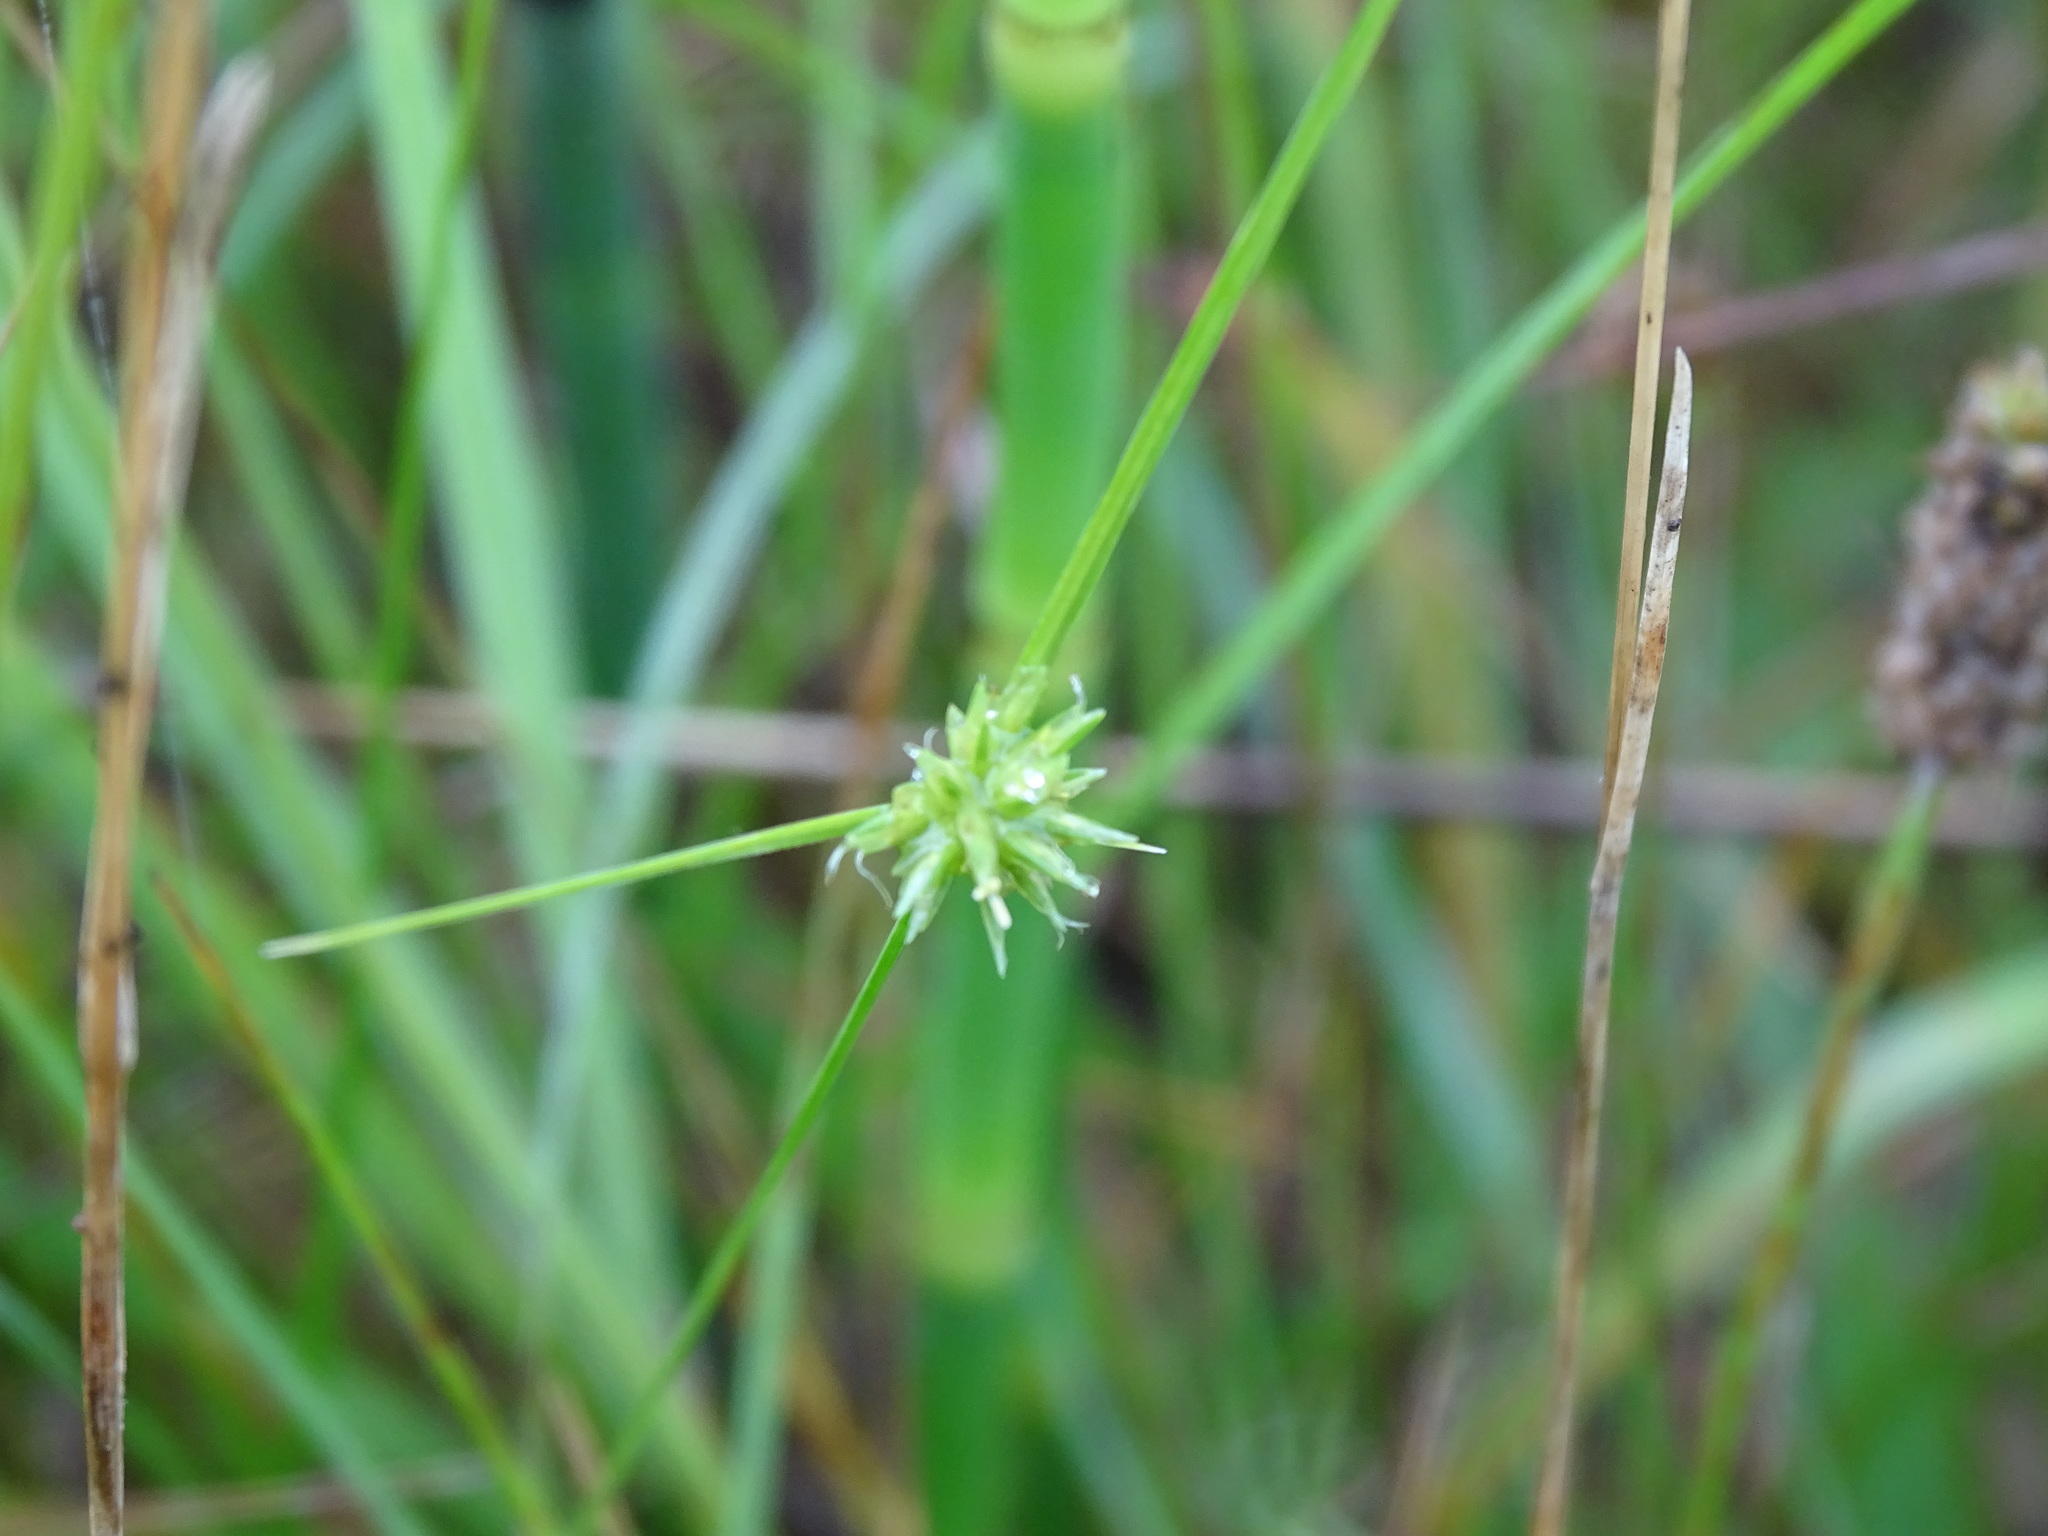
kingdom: Plantae
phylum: Tracheophyta
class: Liliopsida
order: Poales
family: Cyperaceae
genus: Cyperus
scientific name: Cyperus lupulinus
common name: Great plains flatsedge
